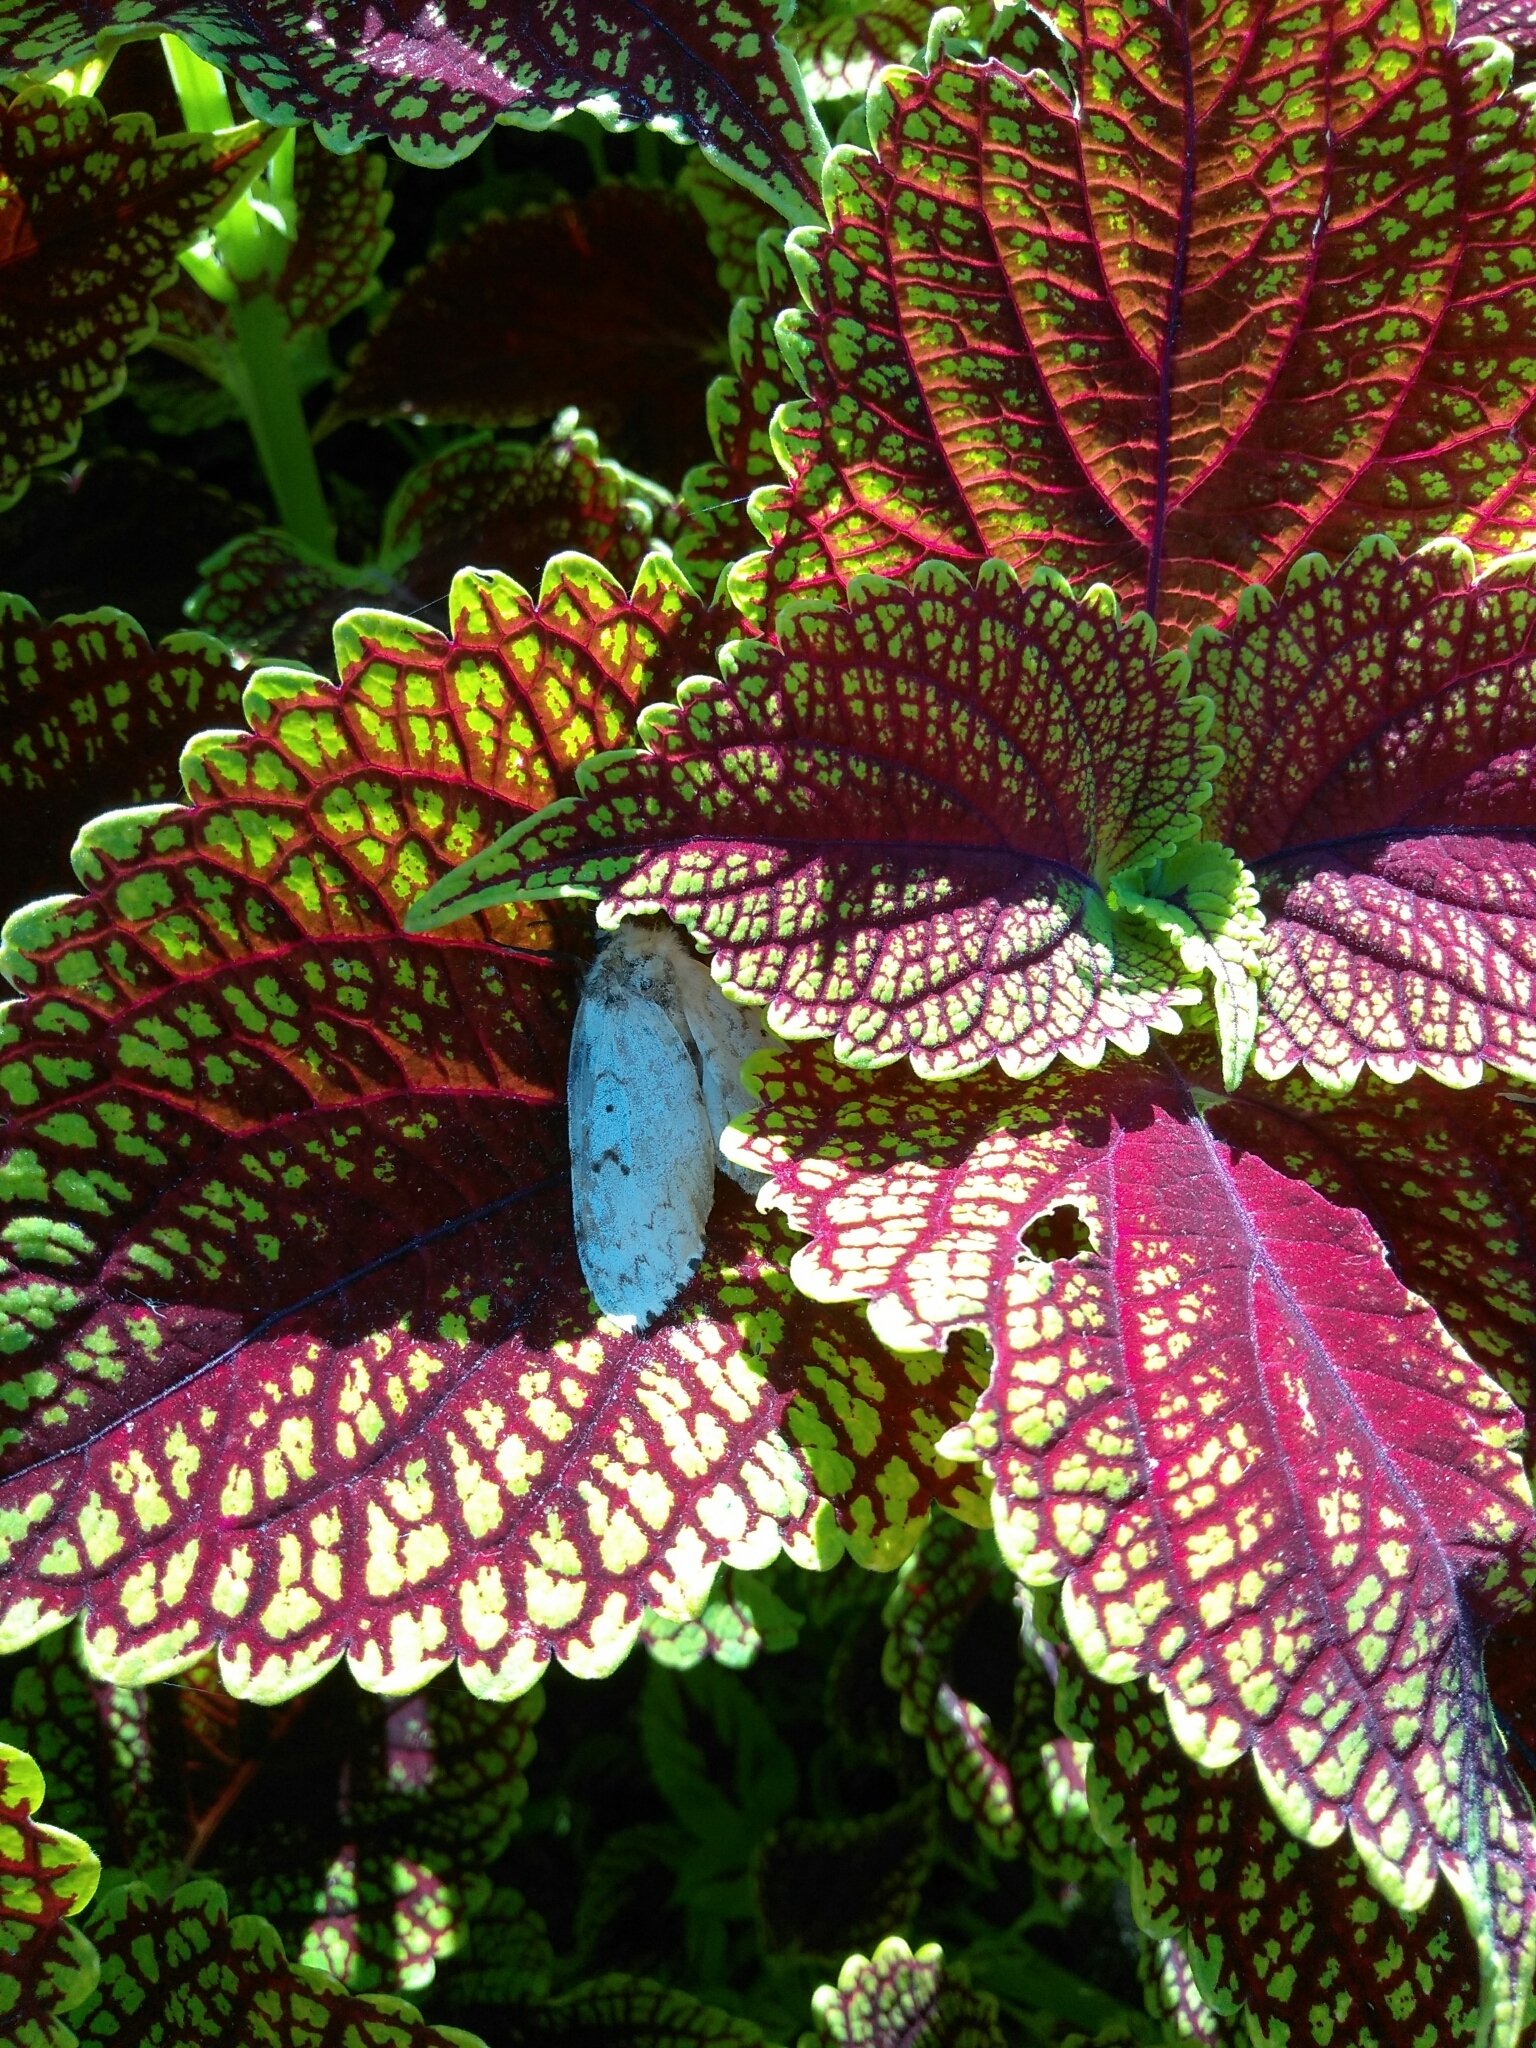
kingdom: Animalia
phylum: Arthropoda
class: Insecta
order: Lepidoptera
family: Erebidae
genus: Lymantria
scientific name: Lymantria dispar
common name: Gypsy moth
